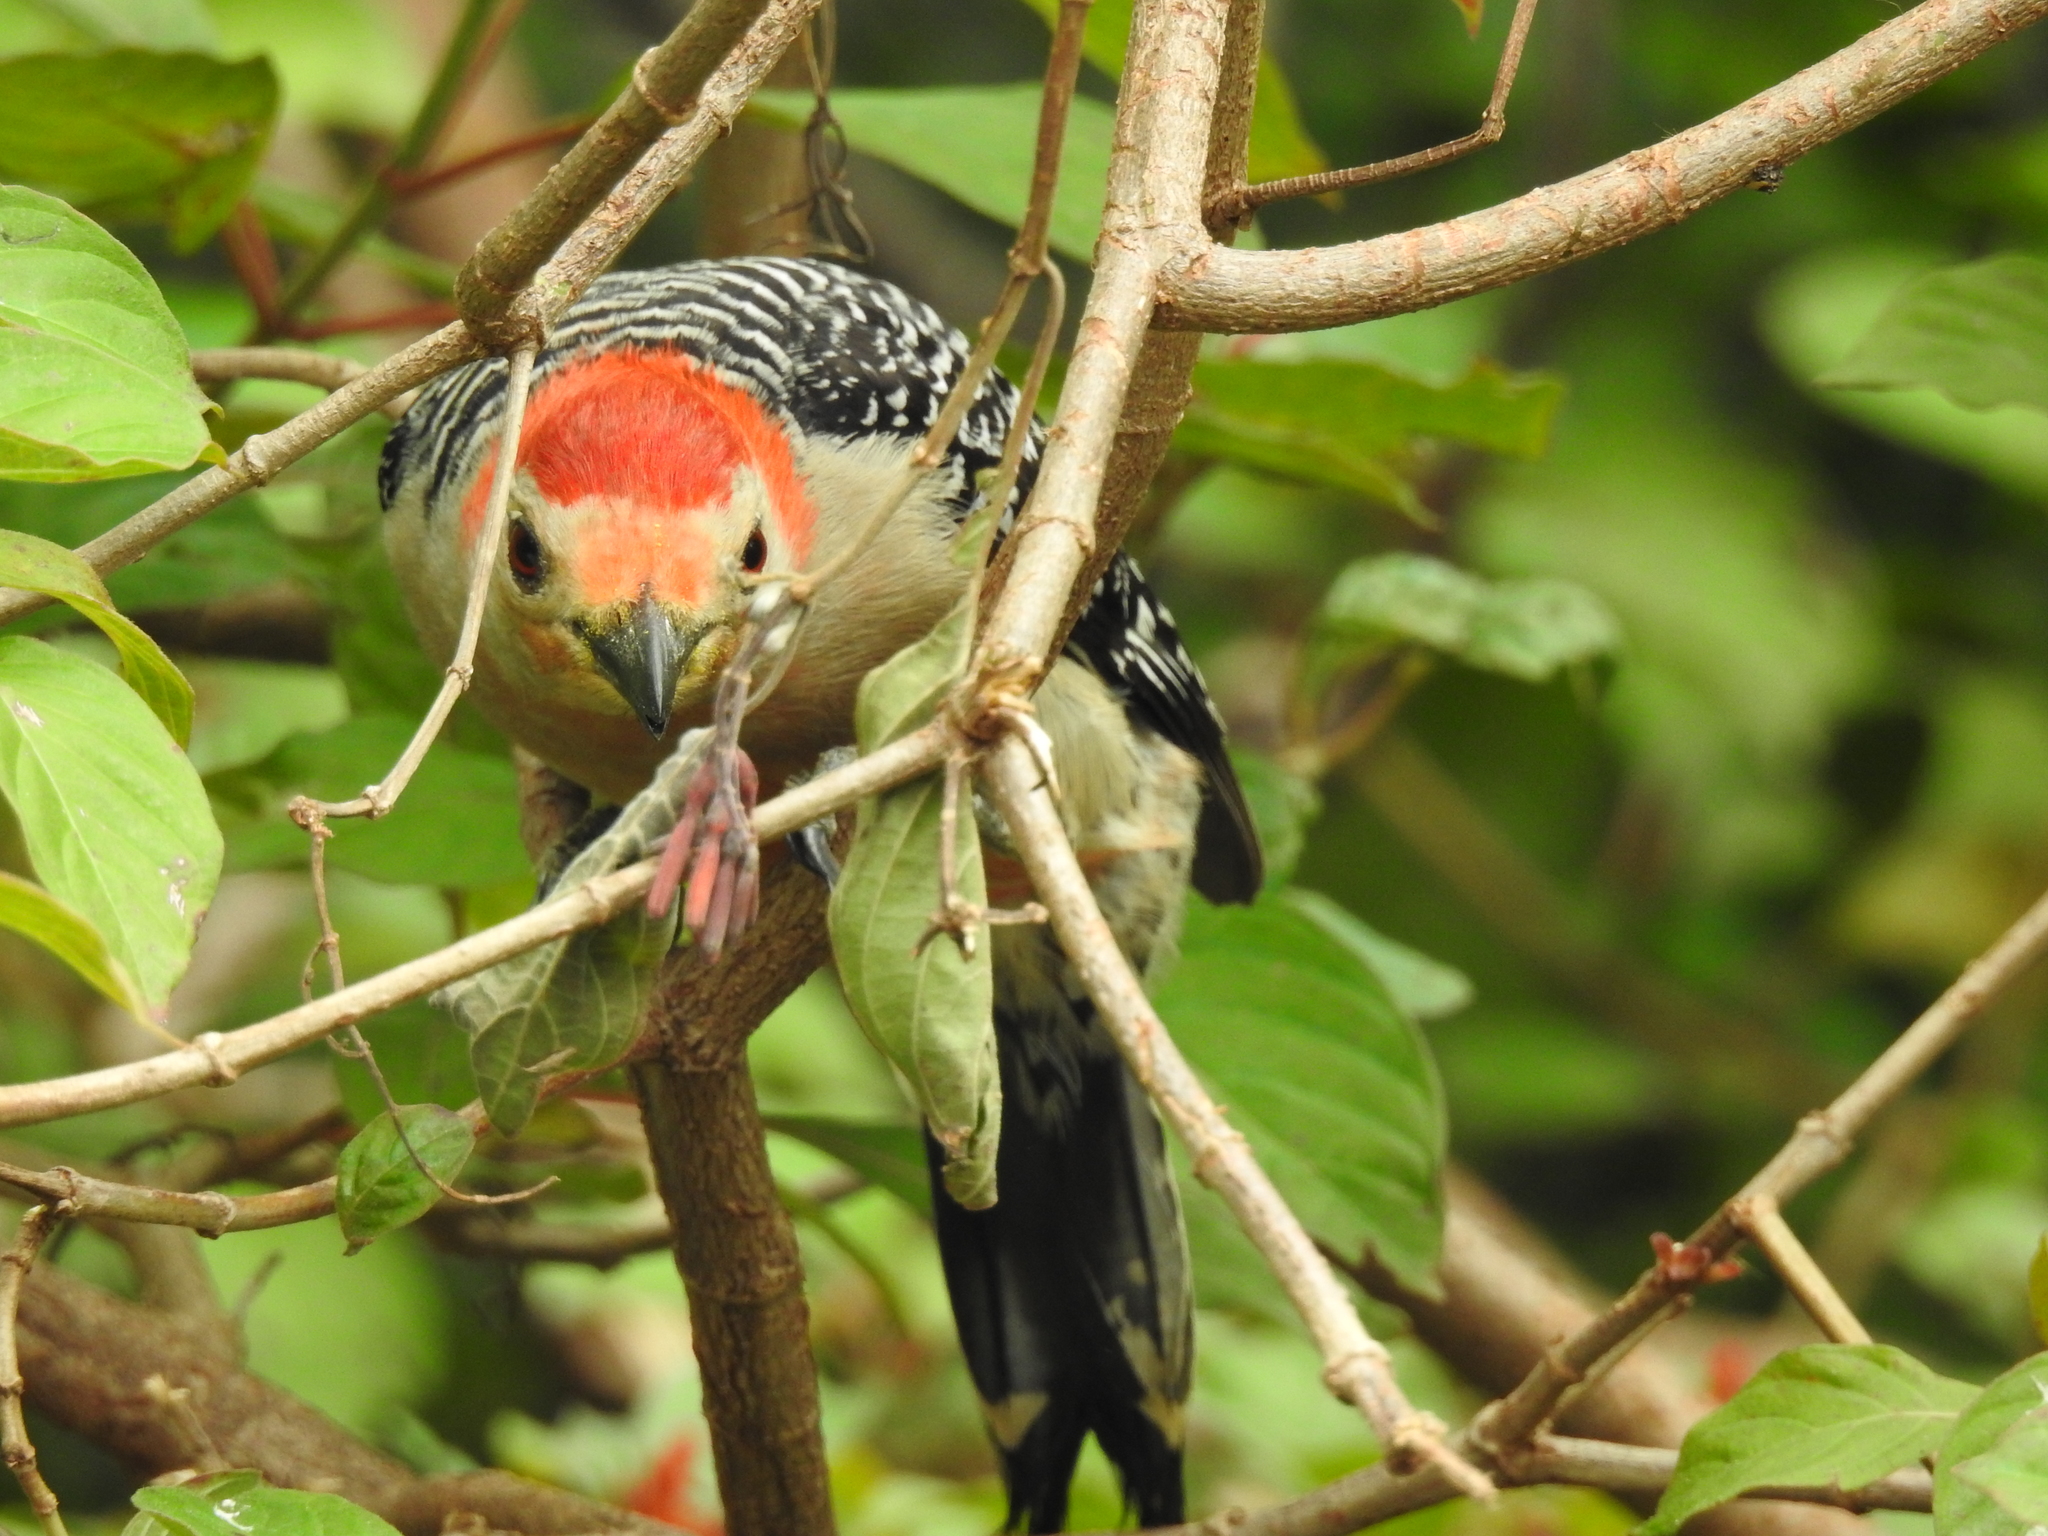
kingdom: Animalia
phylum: Chordata
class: Aves
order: Piciformes
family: Picidae
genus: Melanerpes
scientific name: Melanerpes carolinus
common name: Red-bellied woodpecker
